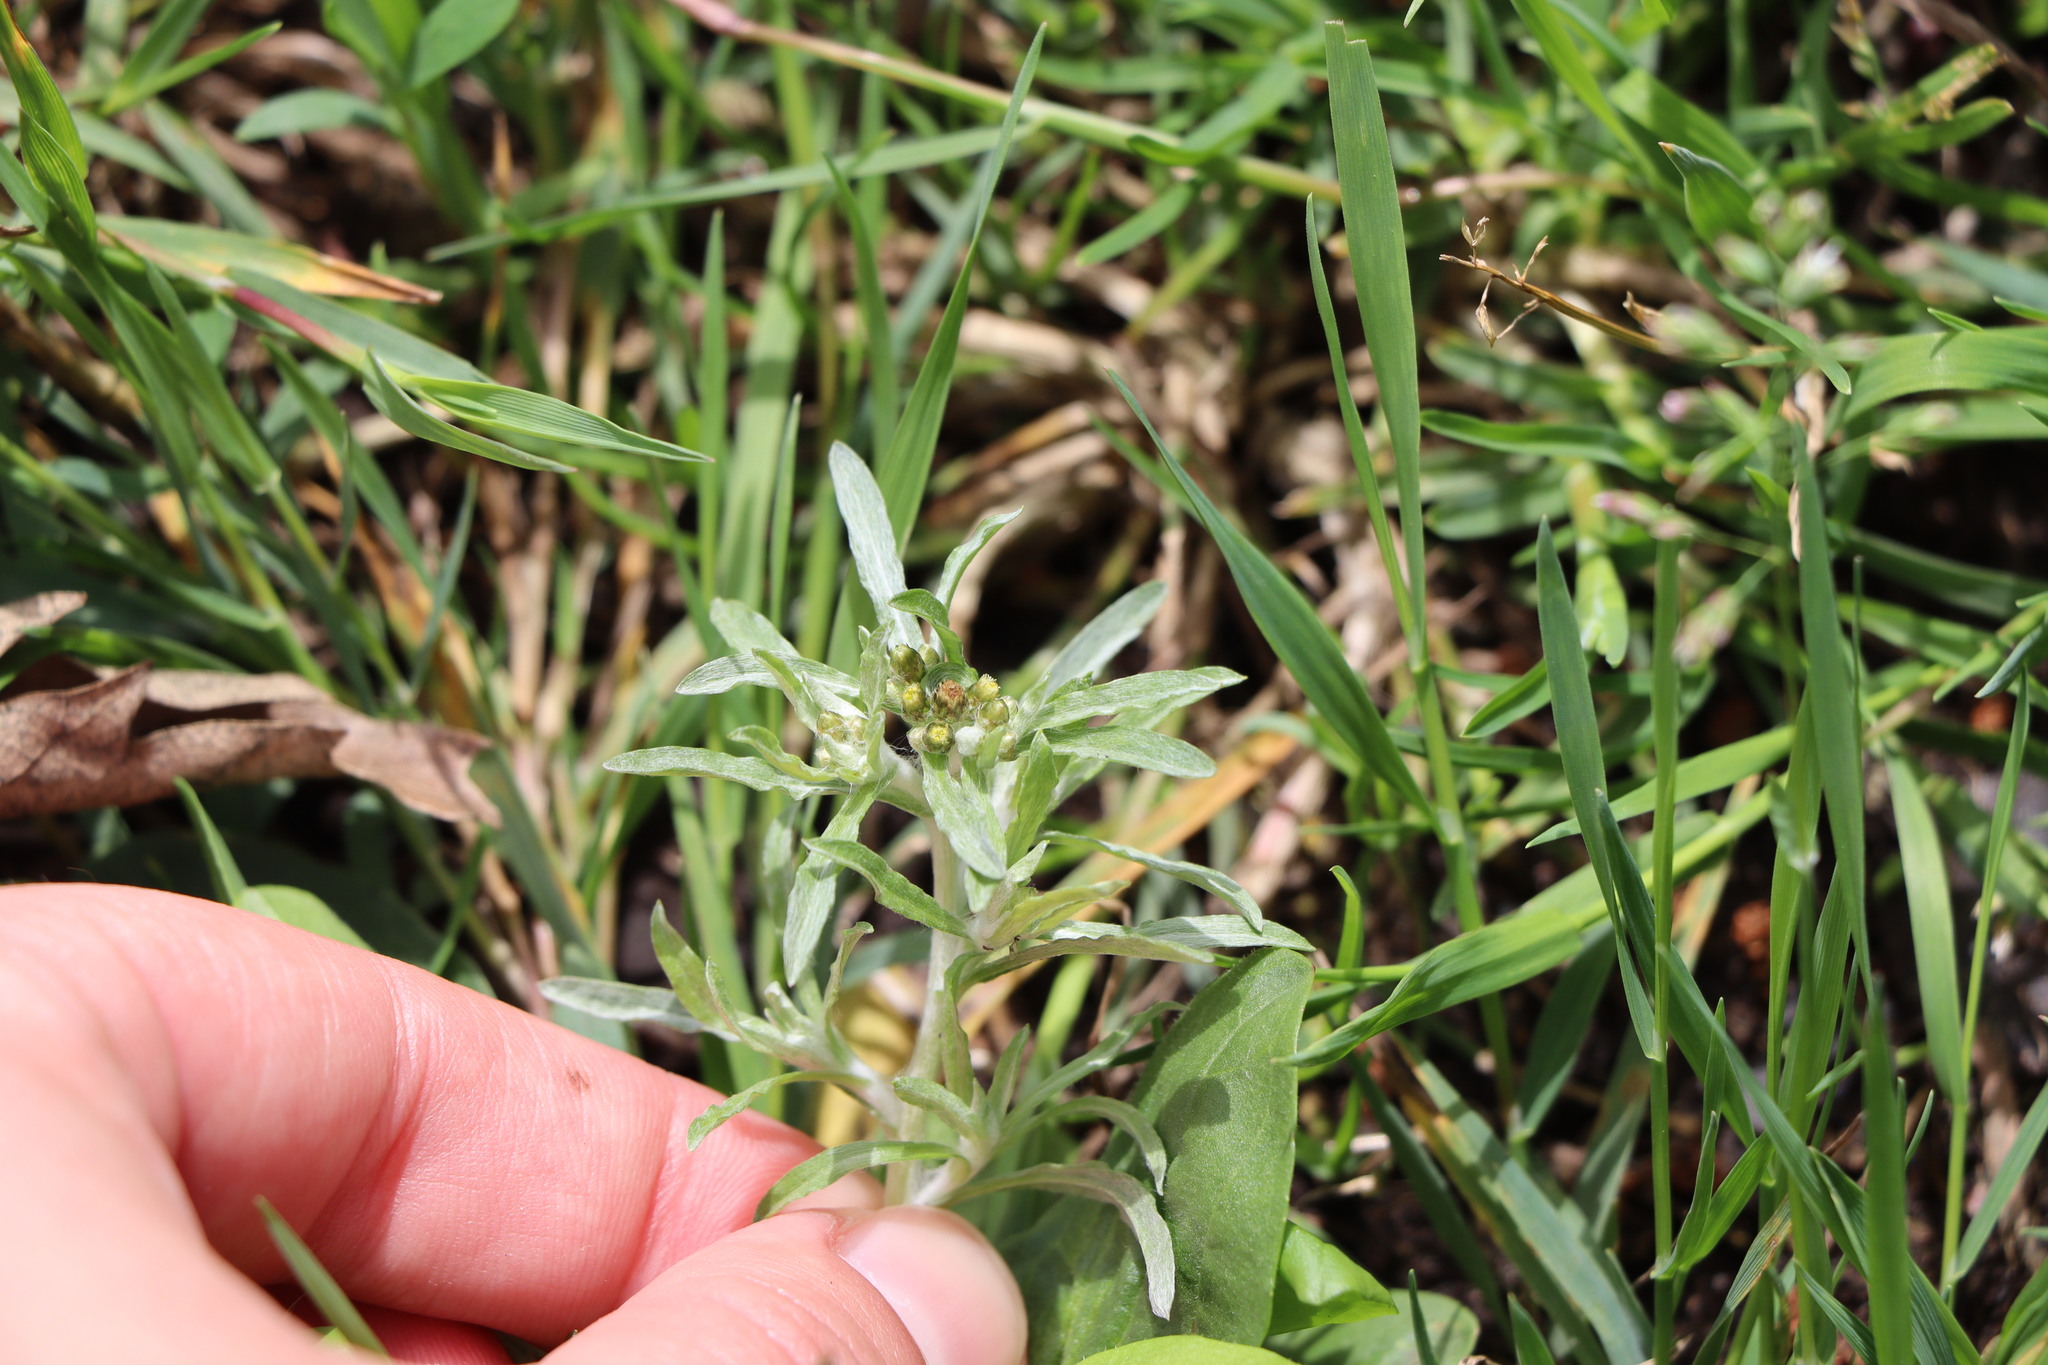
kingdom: Plantae
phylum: Tracheophyta
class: Magnoliopsida
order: Asterales
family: Asteraceae
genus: Gnaphalium
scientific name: Gnaphalium uliginosum
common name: Marsh cudweed
